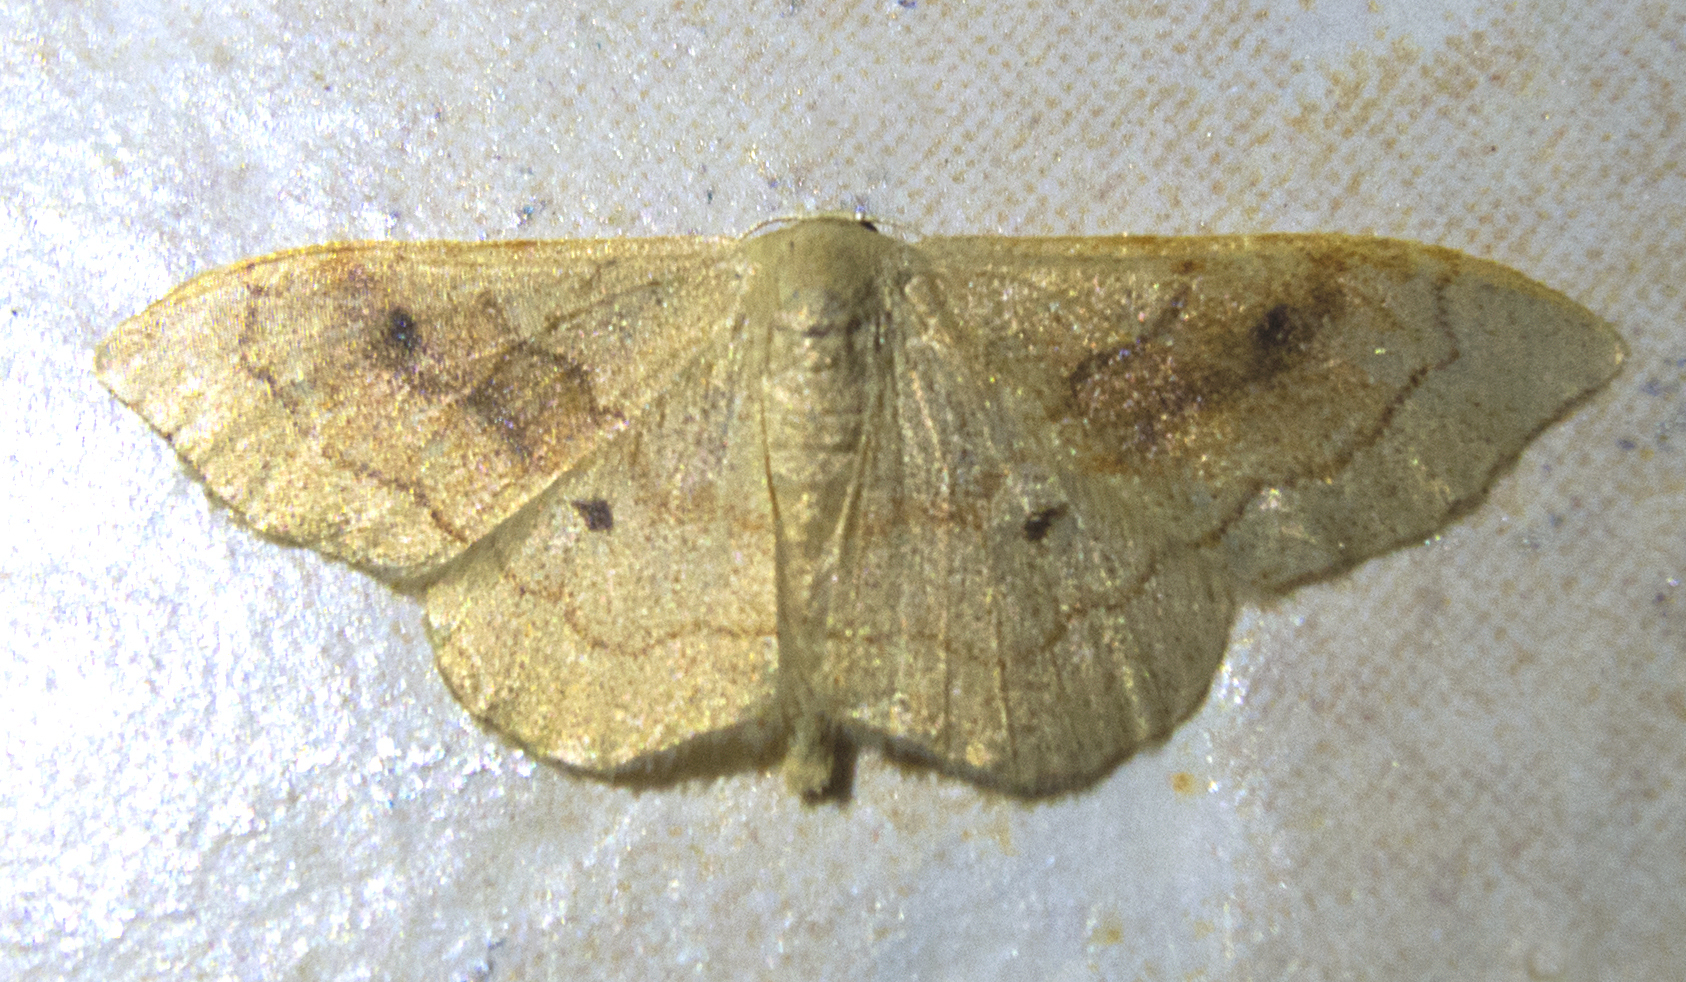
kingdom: Animalia
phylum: Arthropoda
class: Insecta
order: Lepidoptera
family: Geometridae
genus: Idaea
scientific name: Idaea bilinearia
